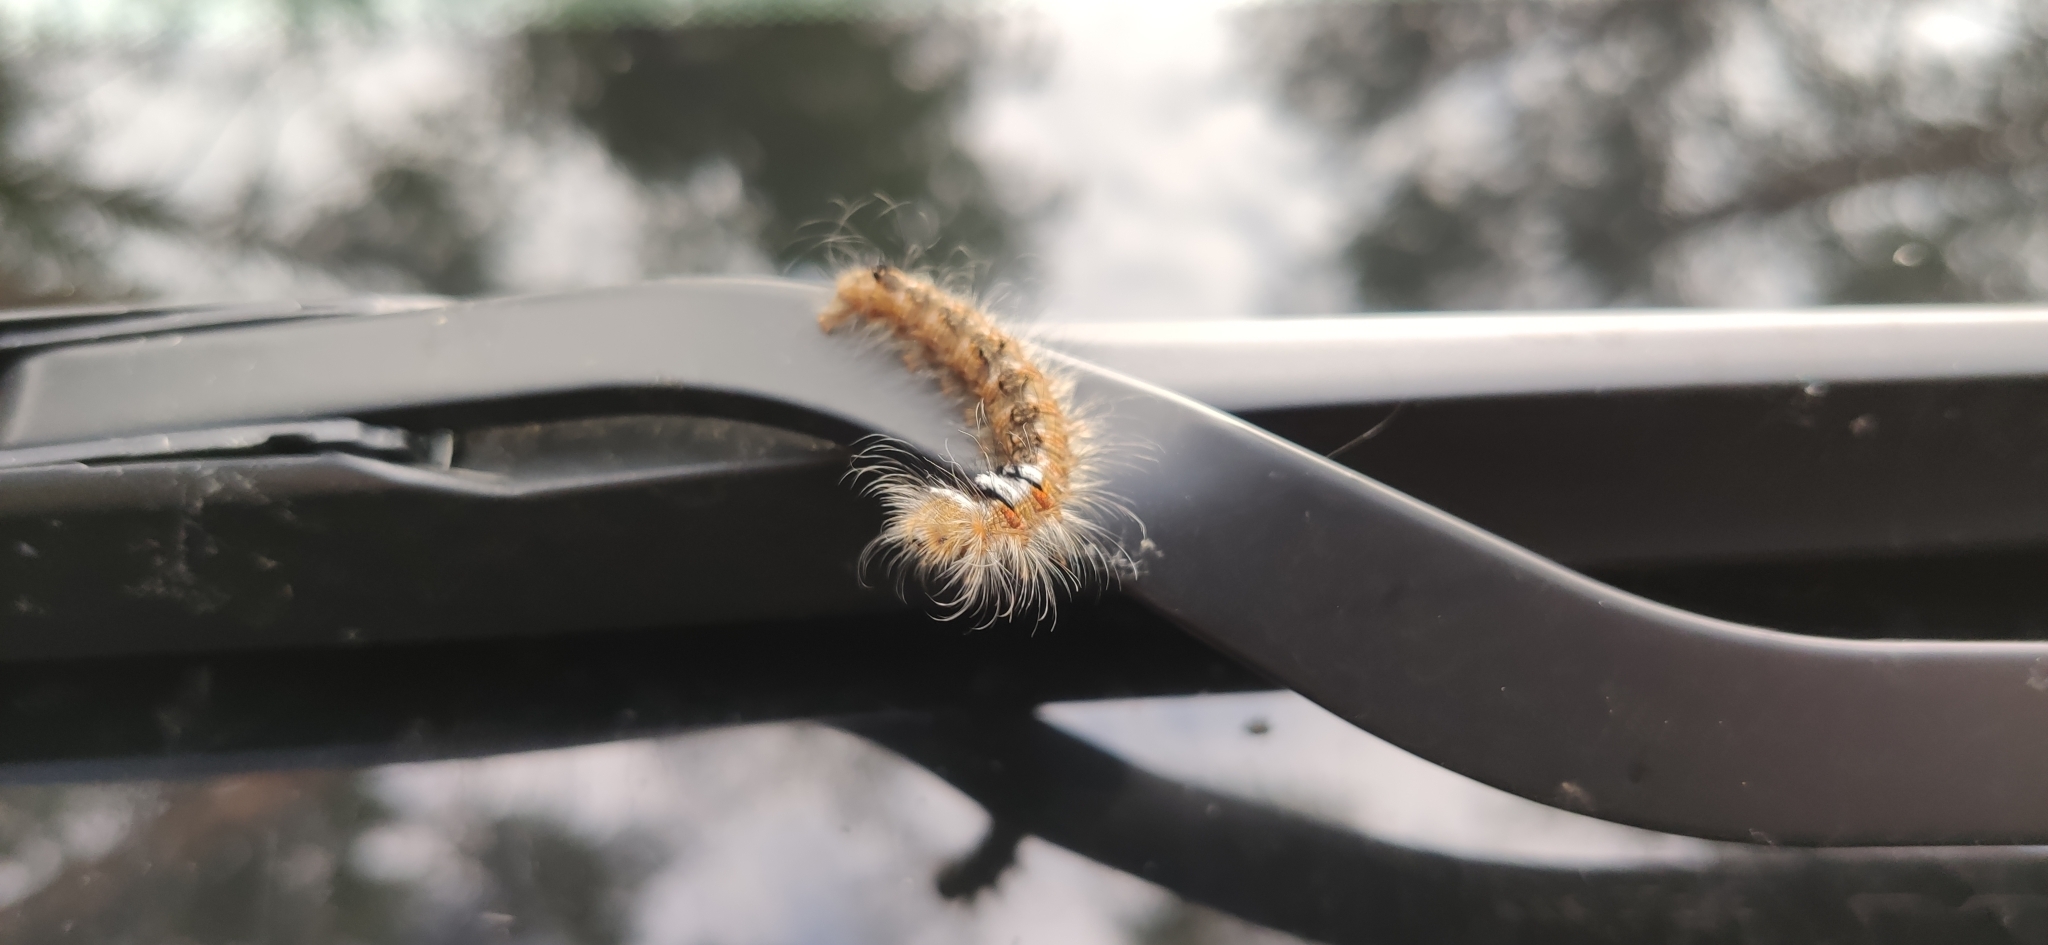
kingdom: Animalia
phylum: Arthropoda
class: Insecta
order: Lepidoptera
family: Lasiocampidae
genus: Dendrolimus
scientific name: Dendrolimus pini
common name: Pine-tree lappet
